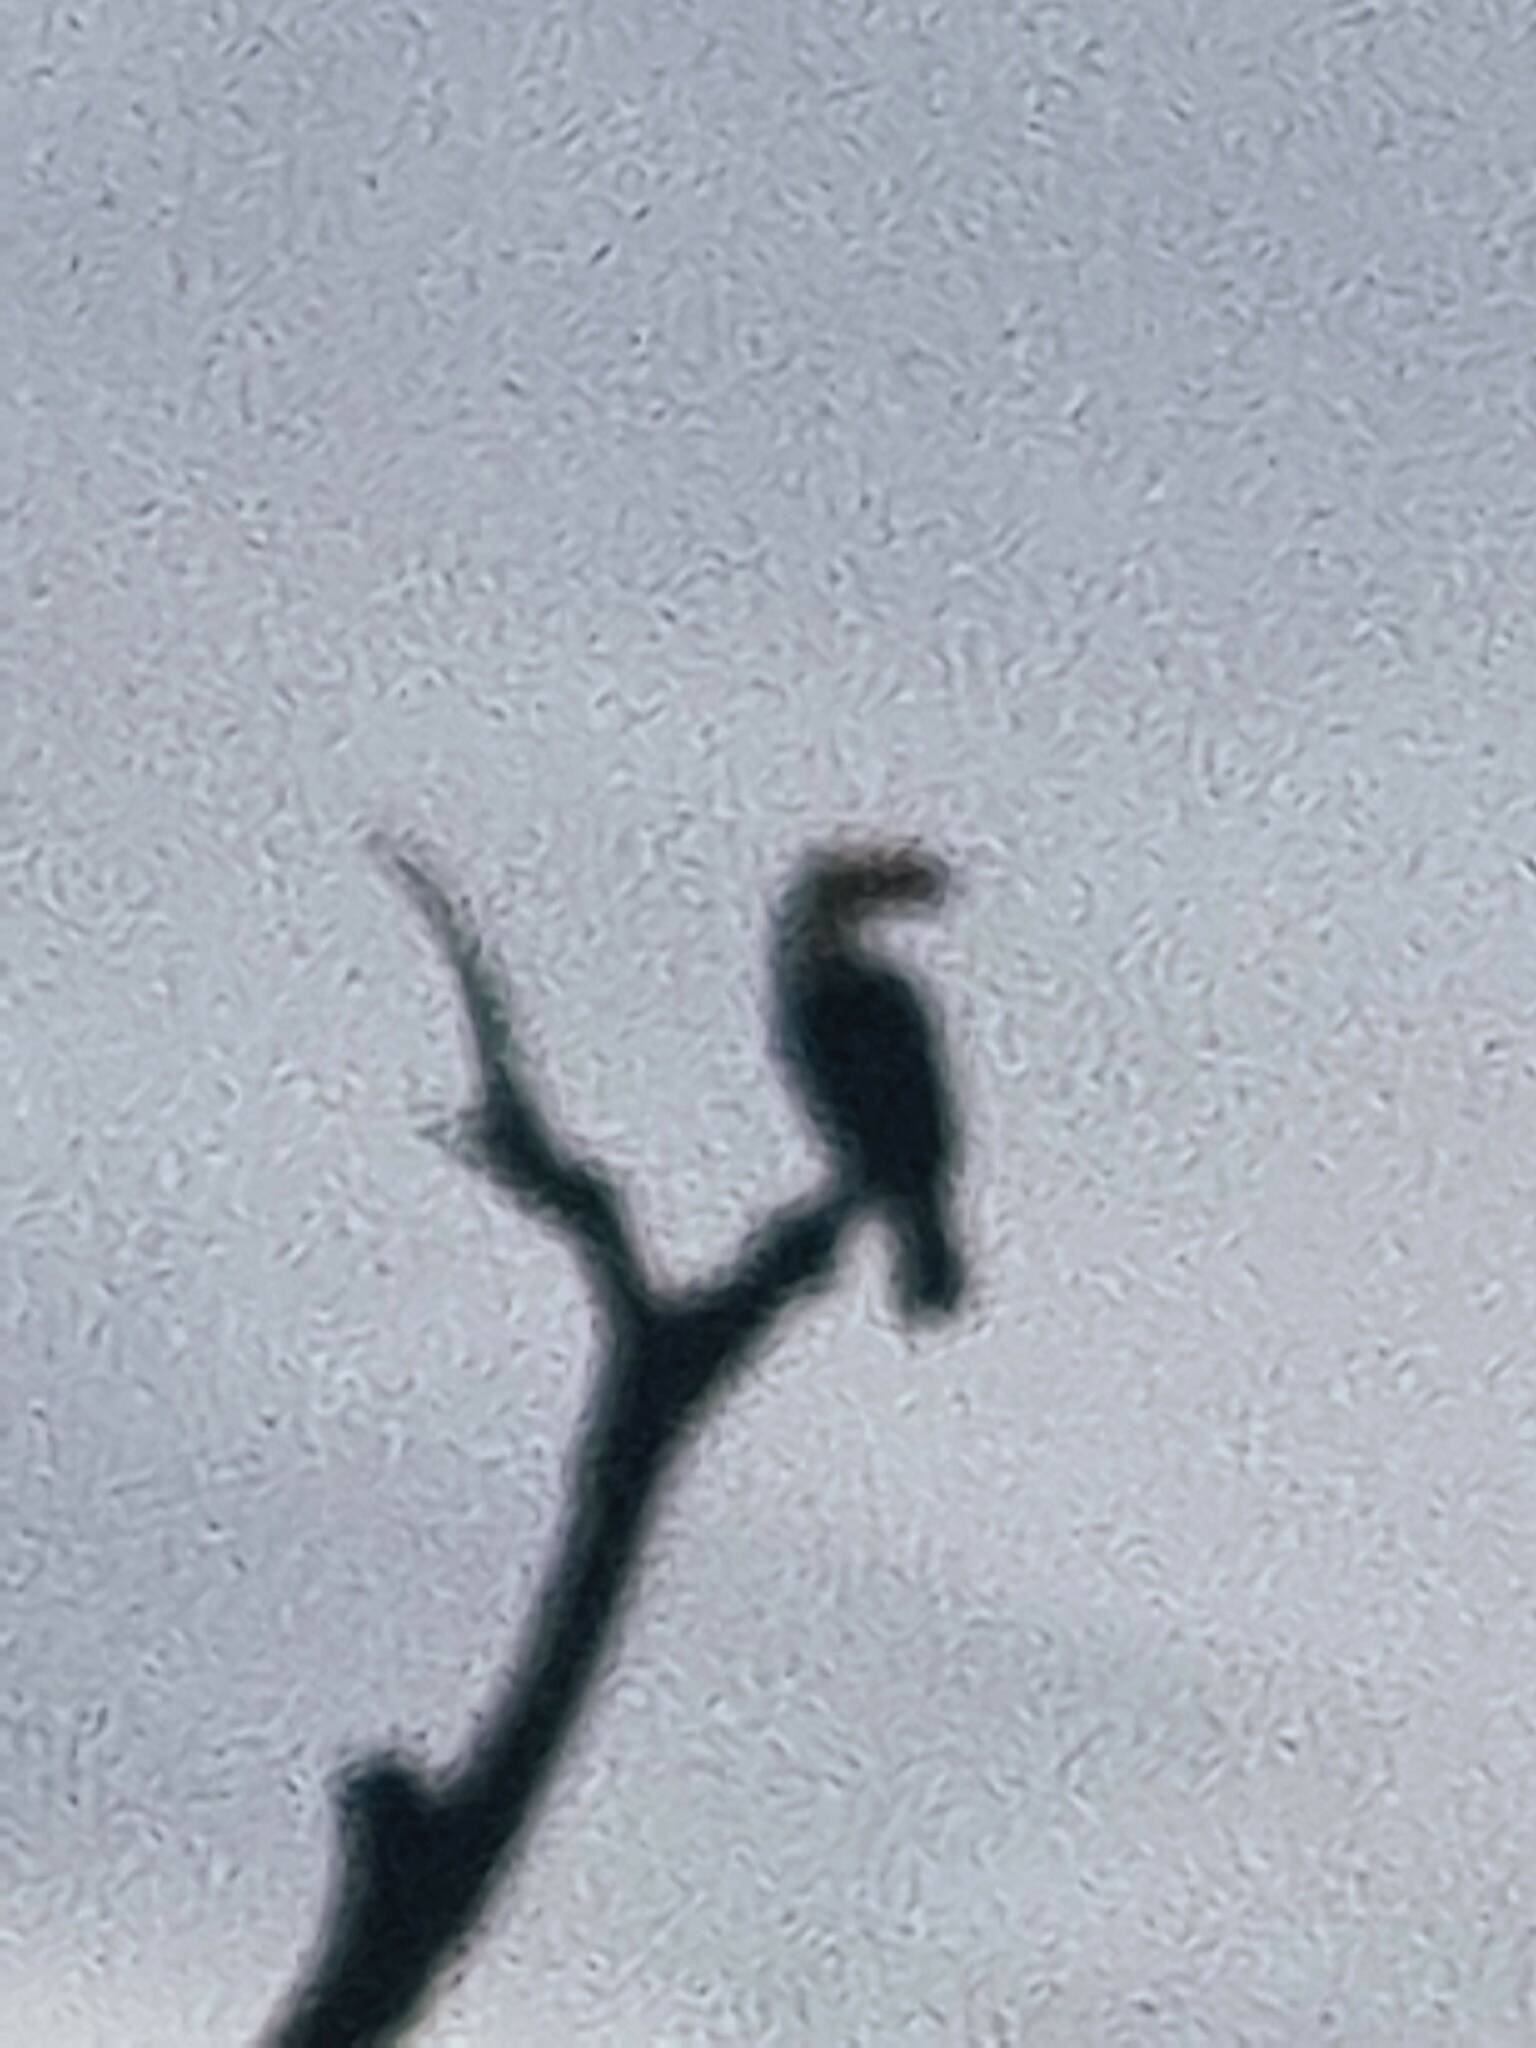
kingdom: Animalia
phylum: Chordata
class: Aves
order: Piciformes
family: Ramphastidae
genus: Ramphastos
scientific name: Ramphastos toco
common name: Toco toucan
